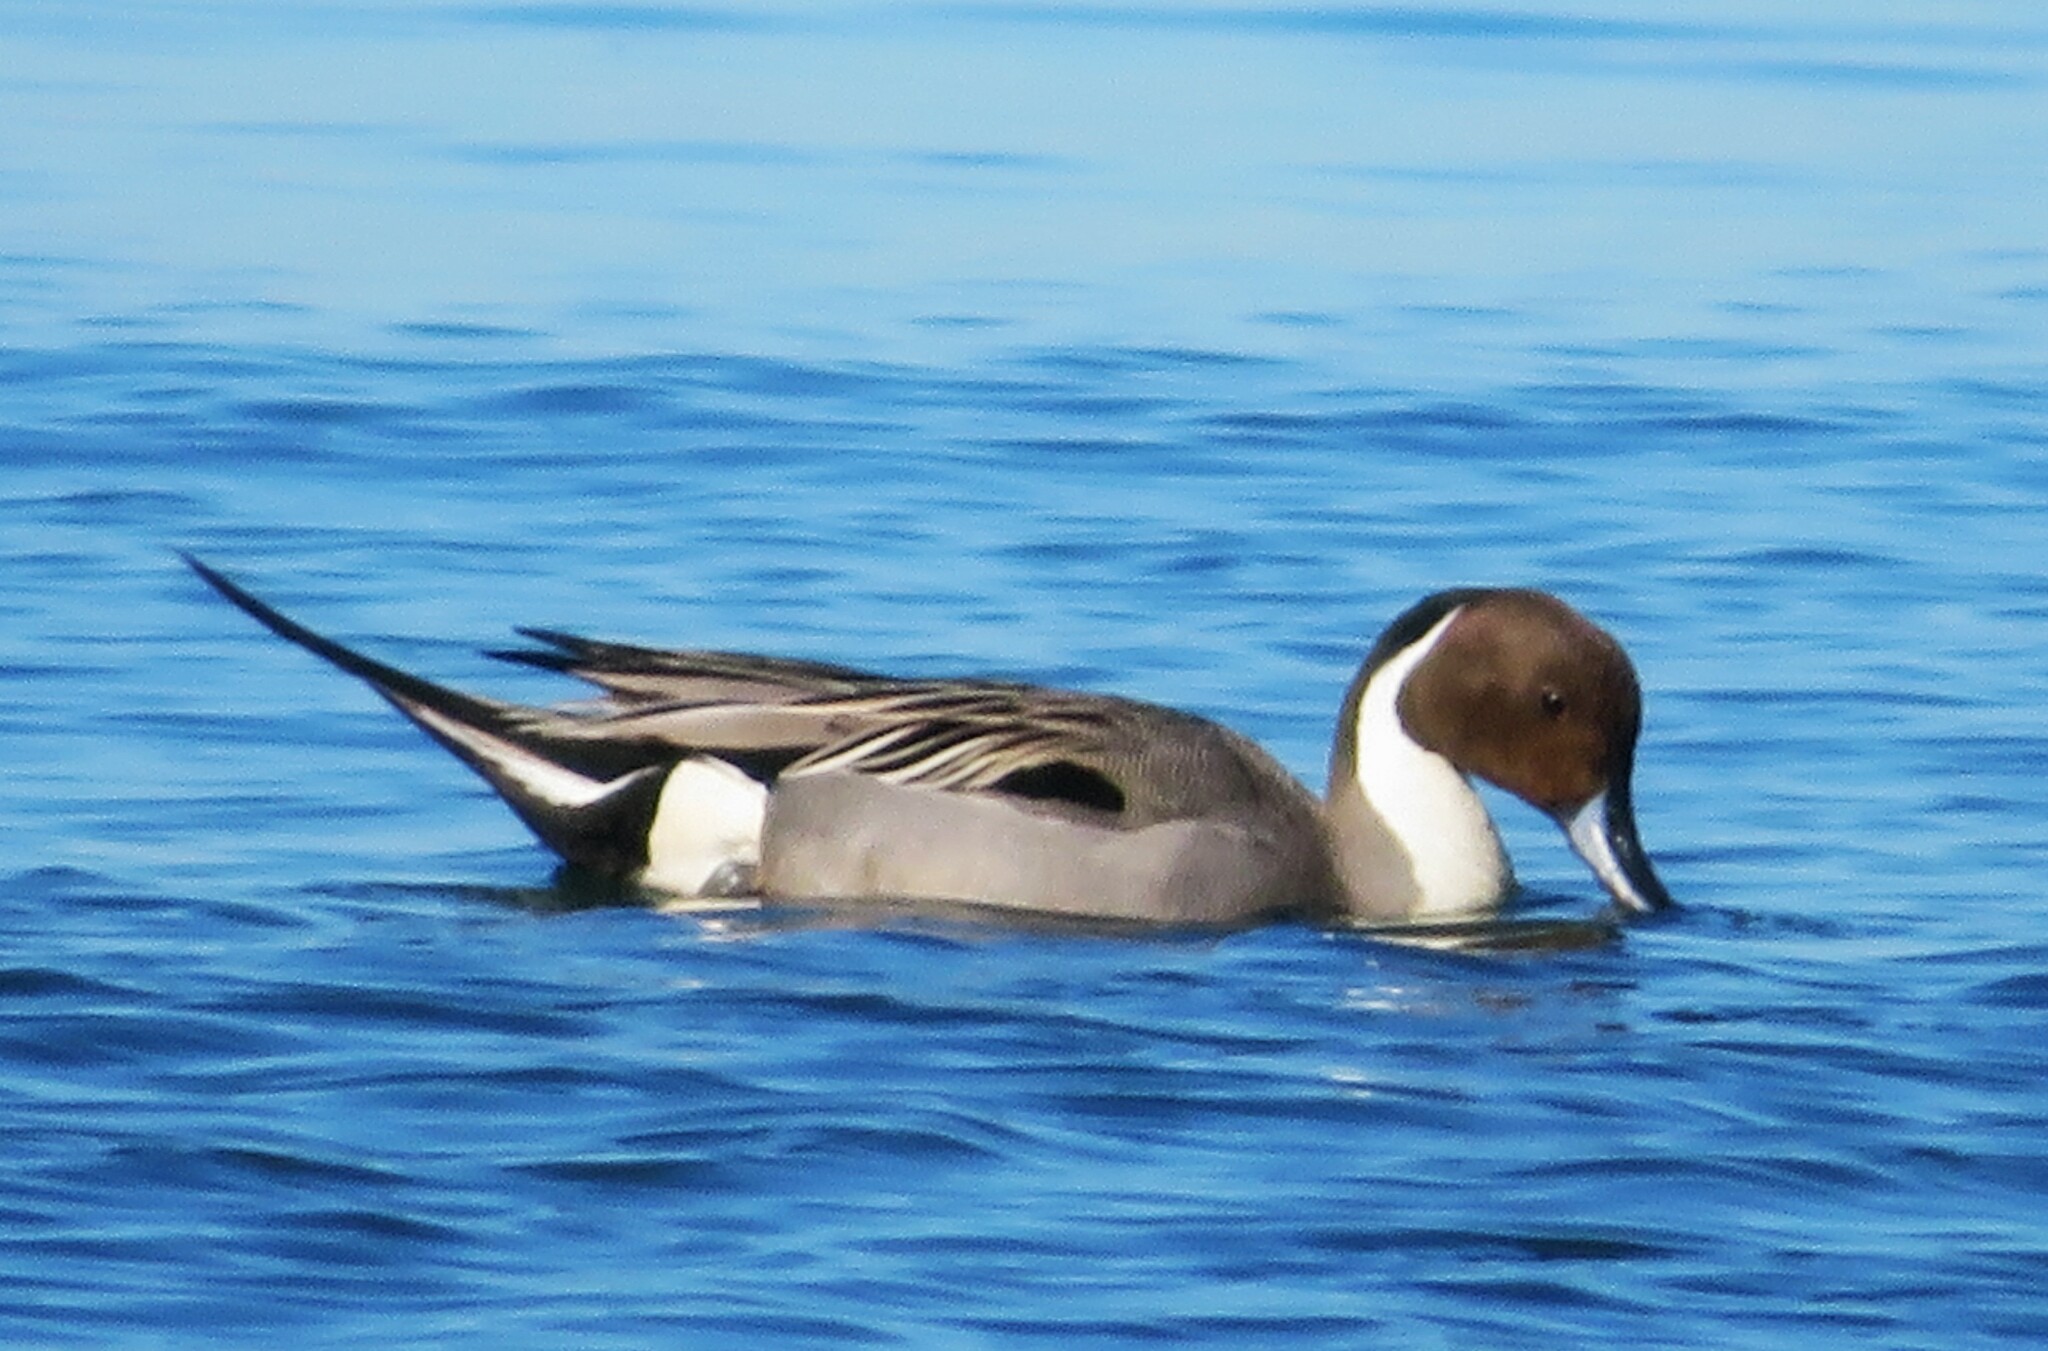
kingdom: Animalia
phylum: Chordata
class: Aves
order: Anseriformes
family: Anatidae
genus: Anas
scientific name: Anas acuta
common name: Northern pintail
